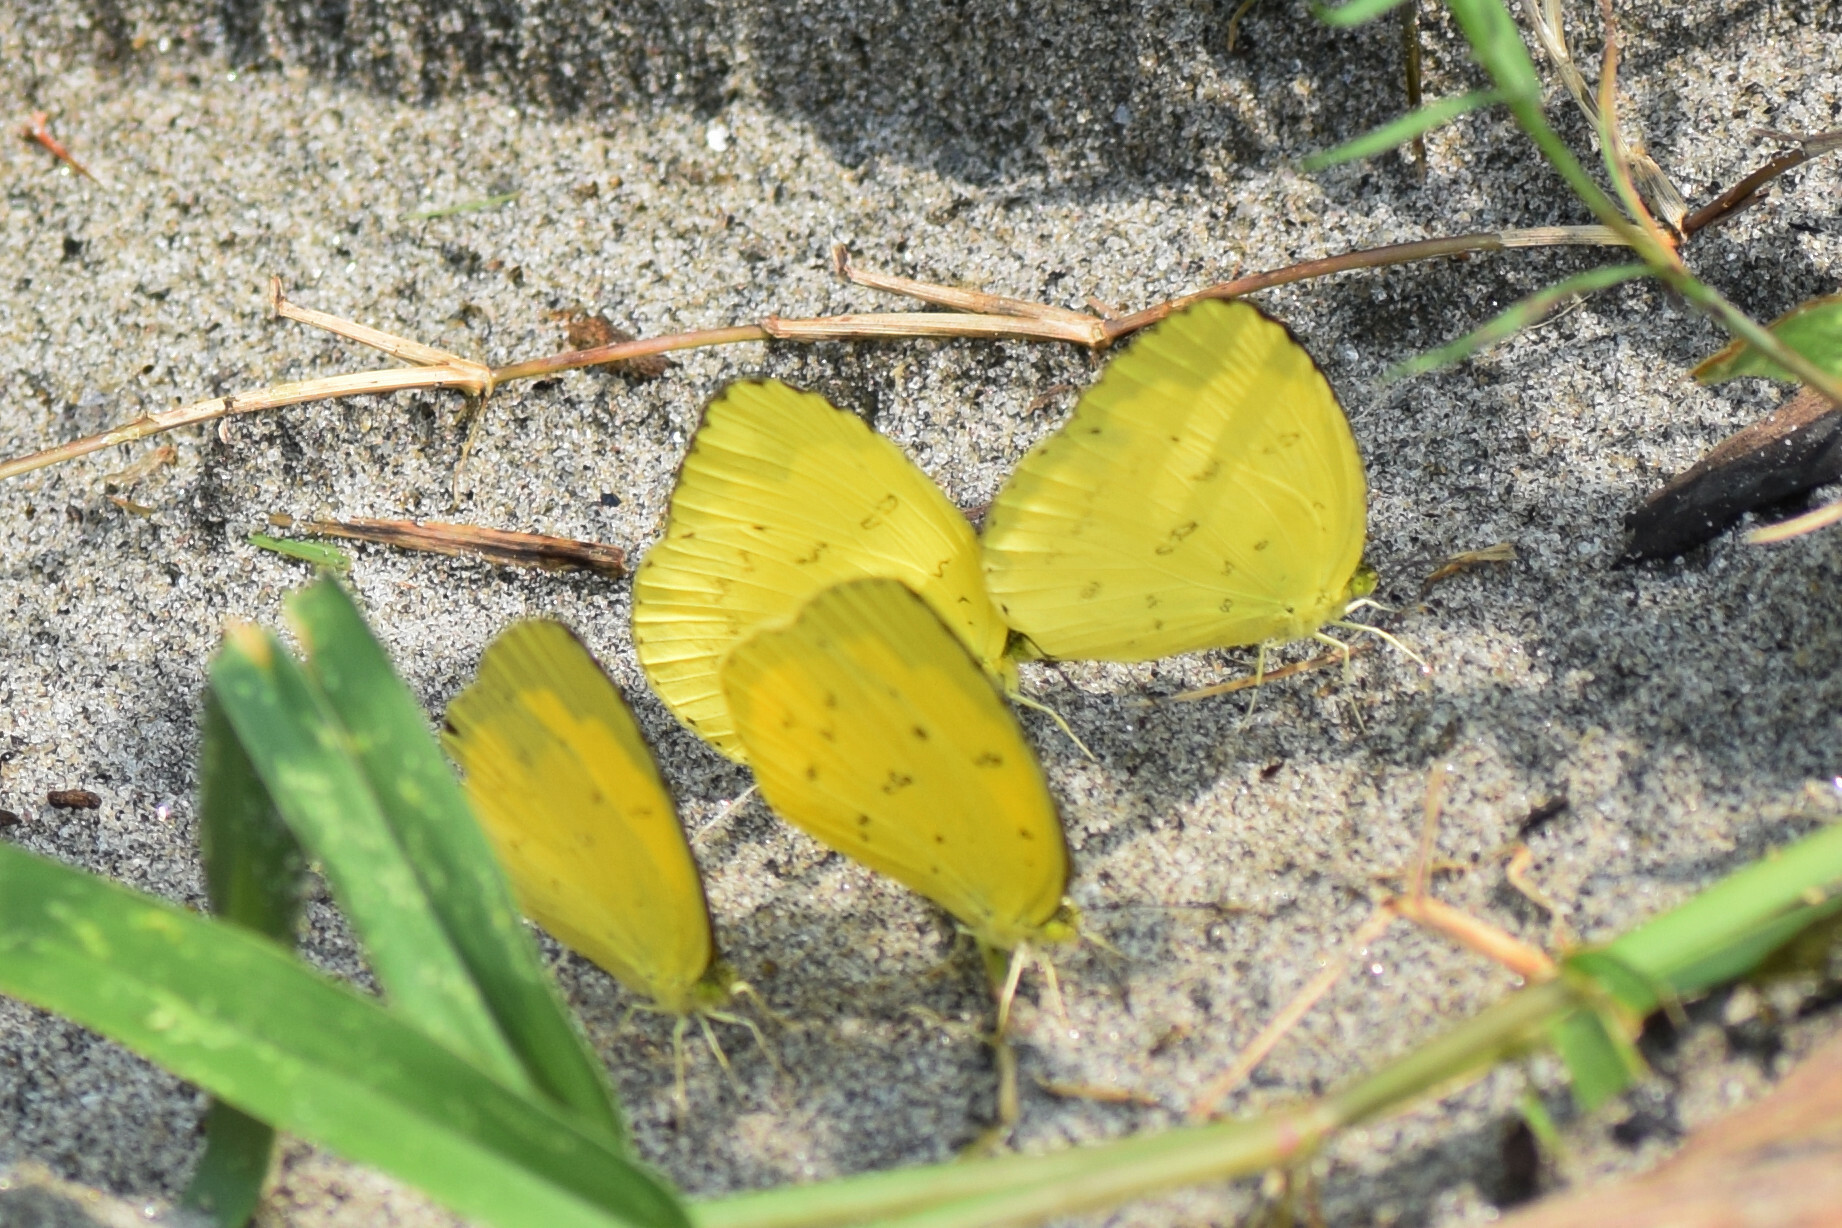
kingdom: Animalia
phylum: Arthropoda
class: Insecta
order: Lepidoptera
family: Pieridae
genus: Eurema
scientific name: Eurema blanda
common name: Three-spot grass yellow
